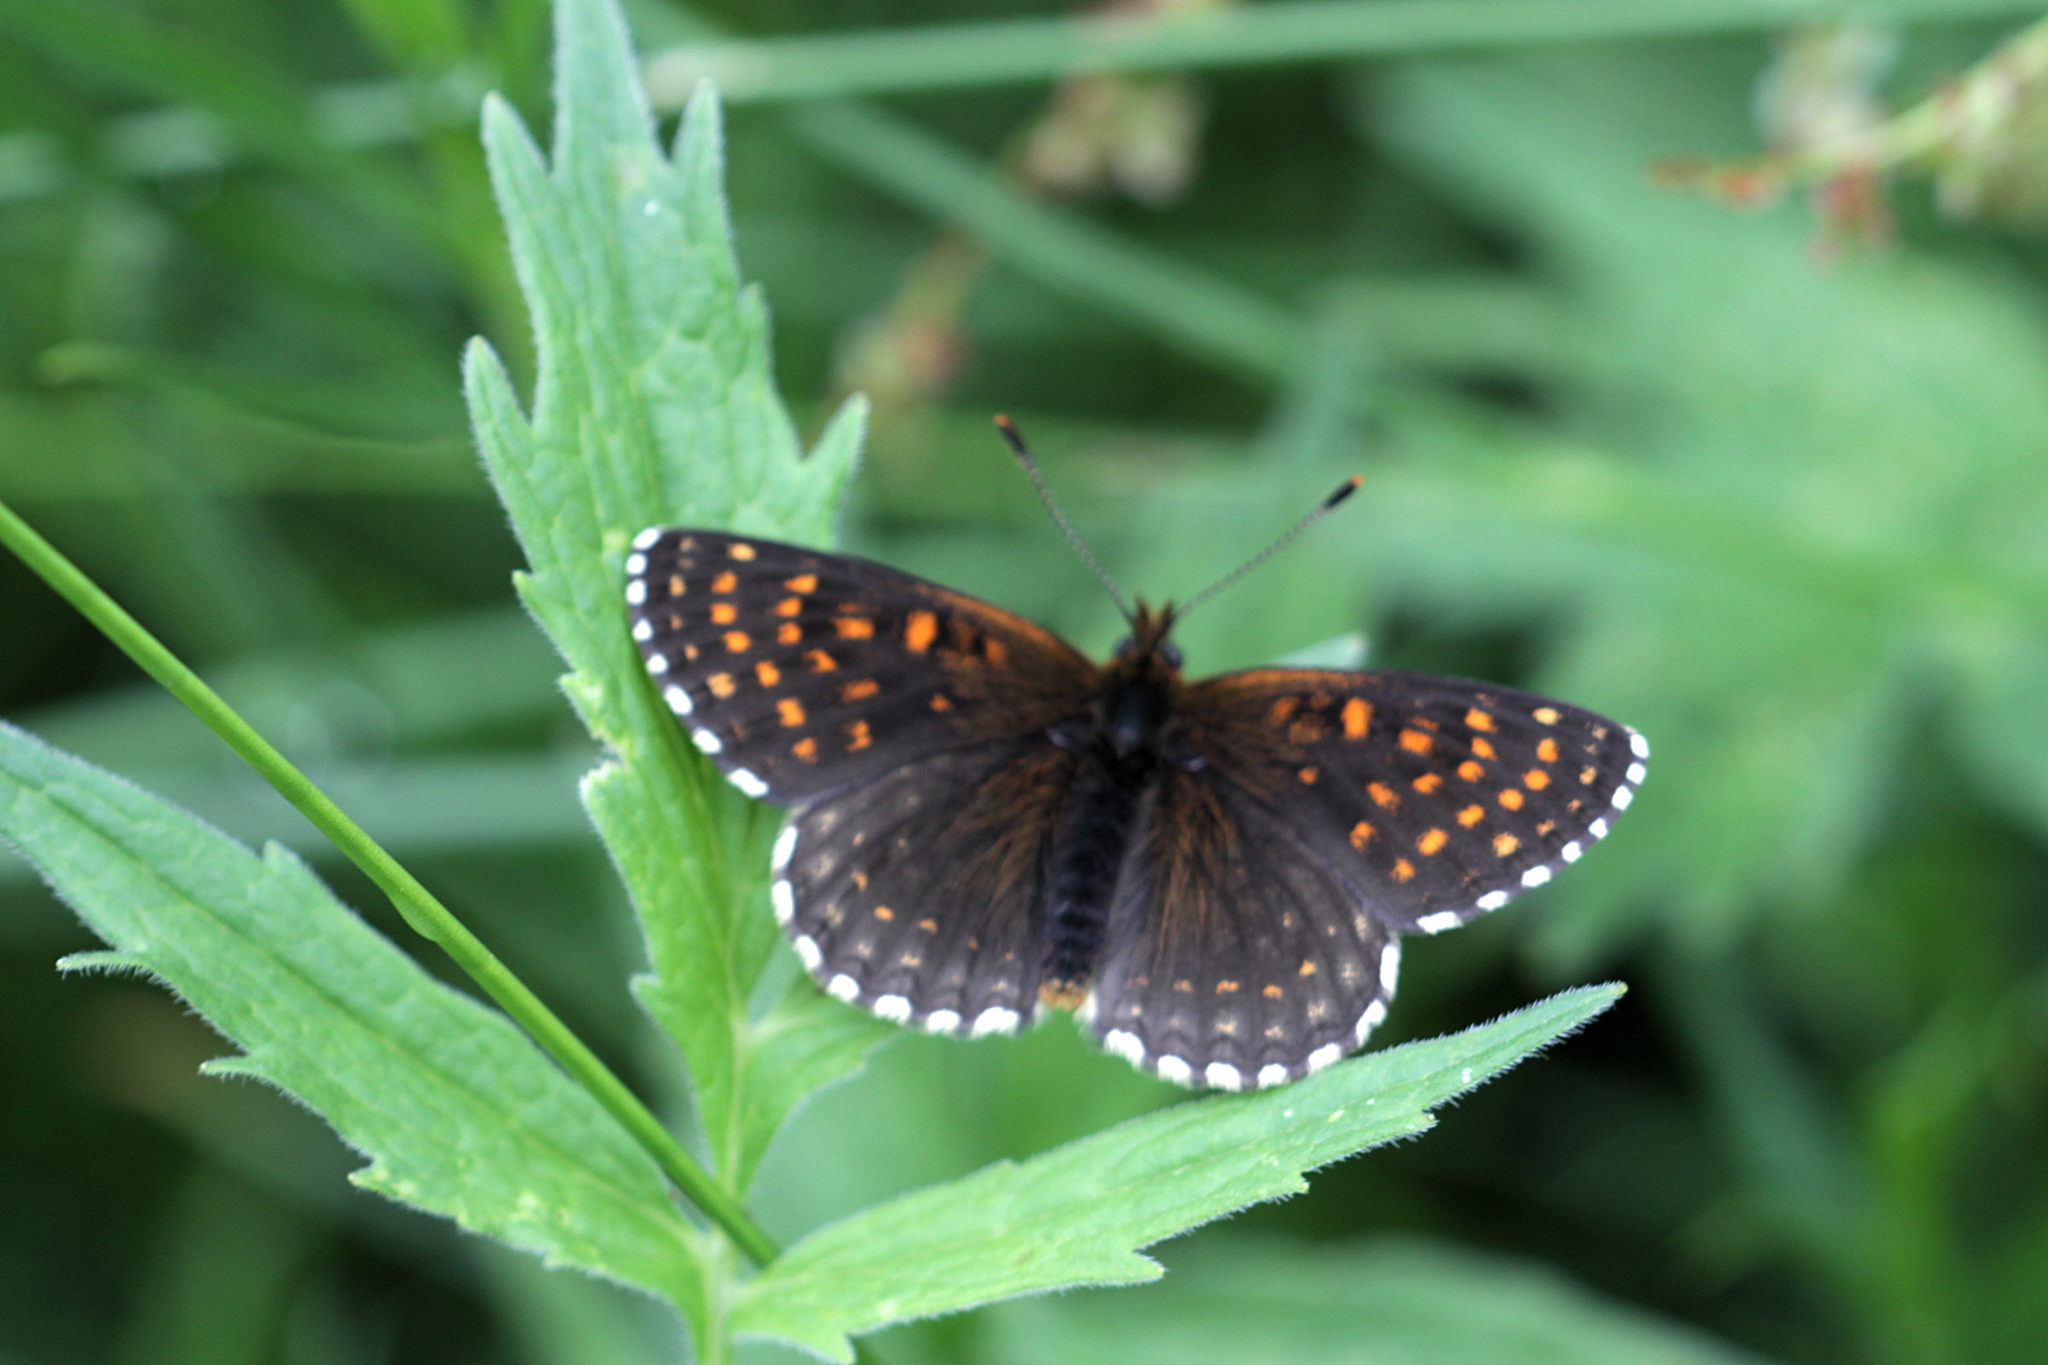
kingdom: Animalia
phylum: Arthropoda
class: Insecta
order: Lepidoptera
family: Nymphalidae
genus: Melitaea
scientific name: Melitaea diamina
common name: False heath fritillary
